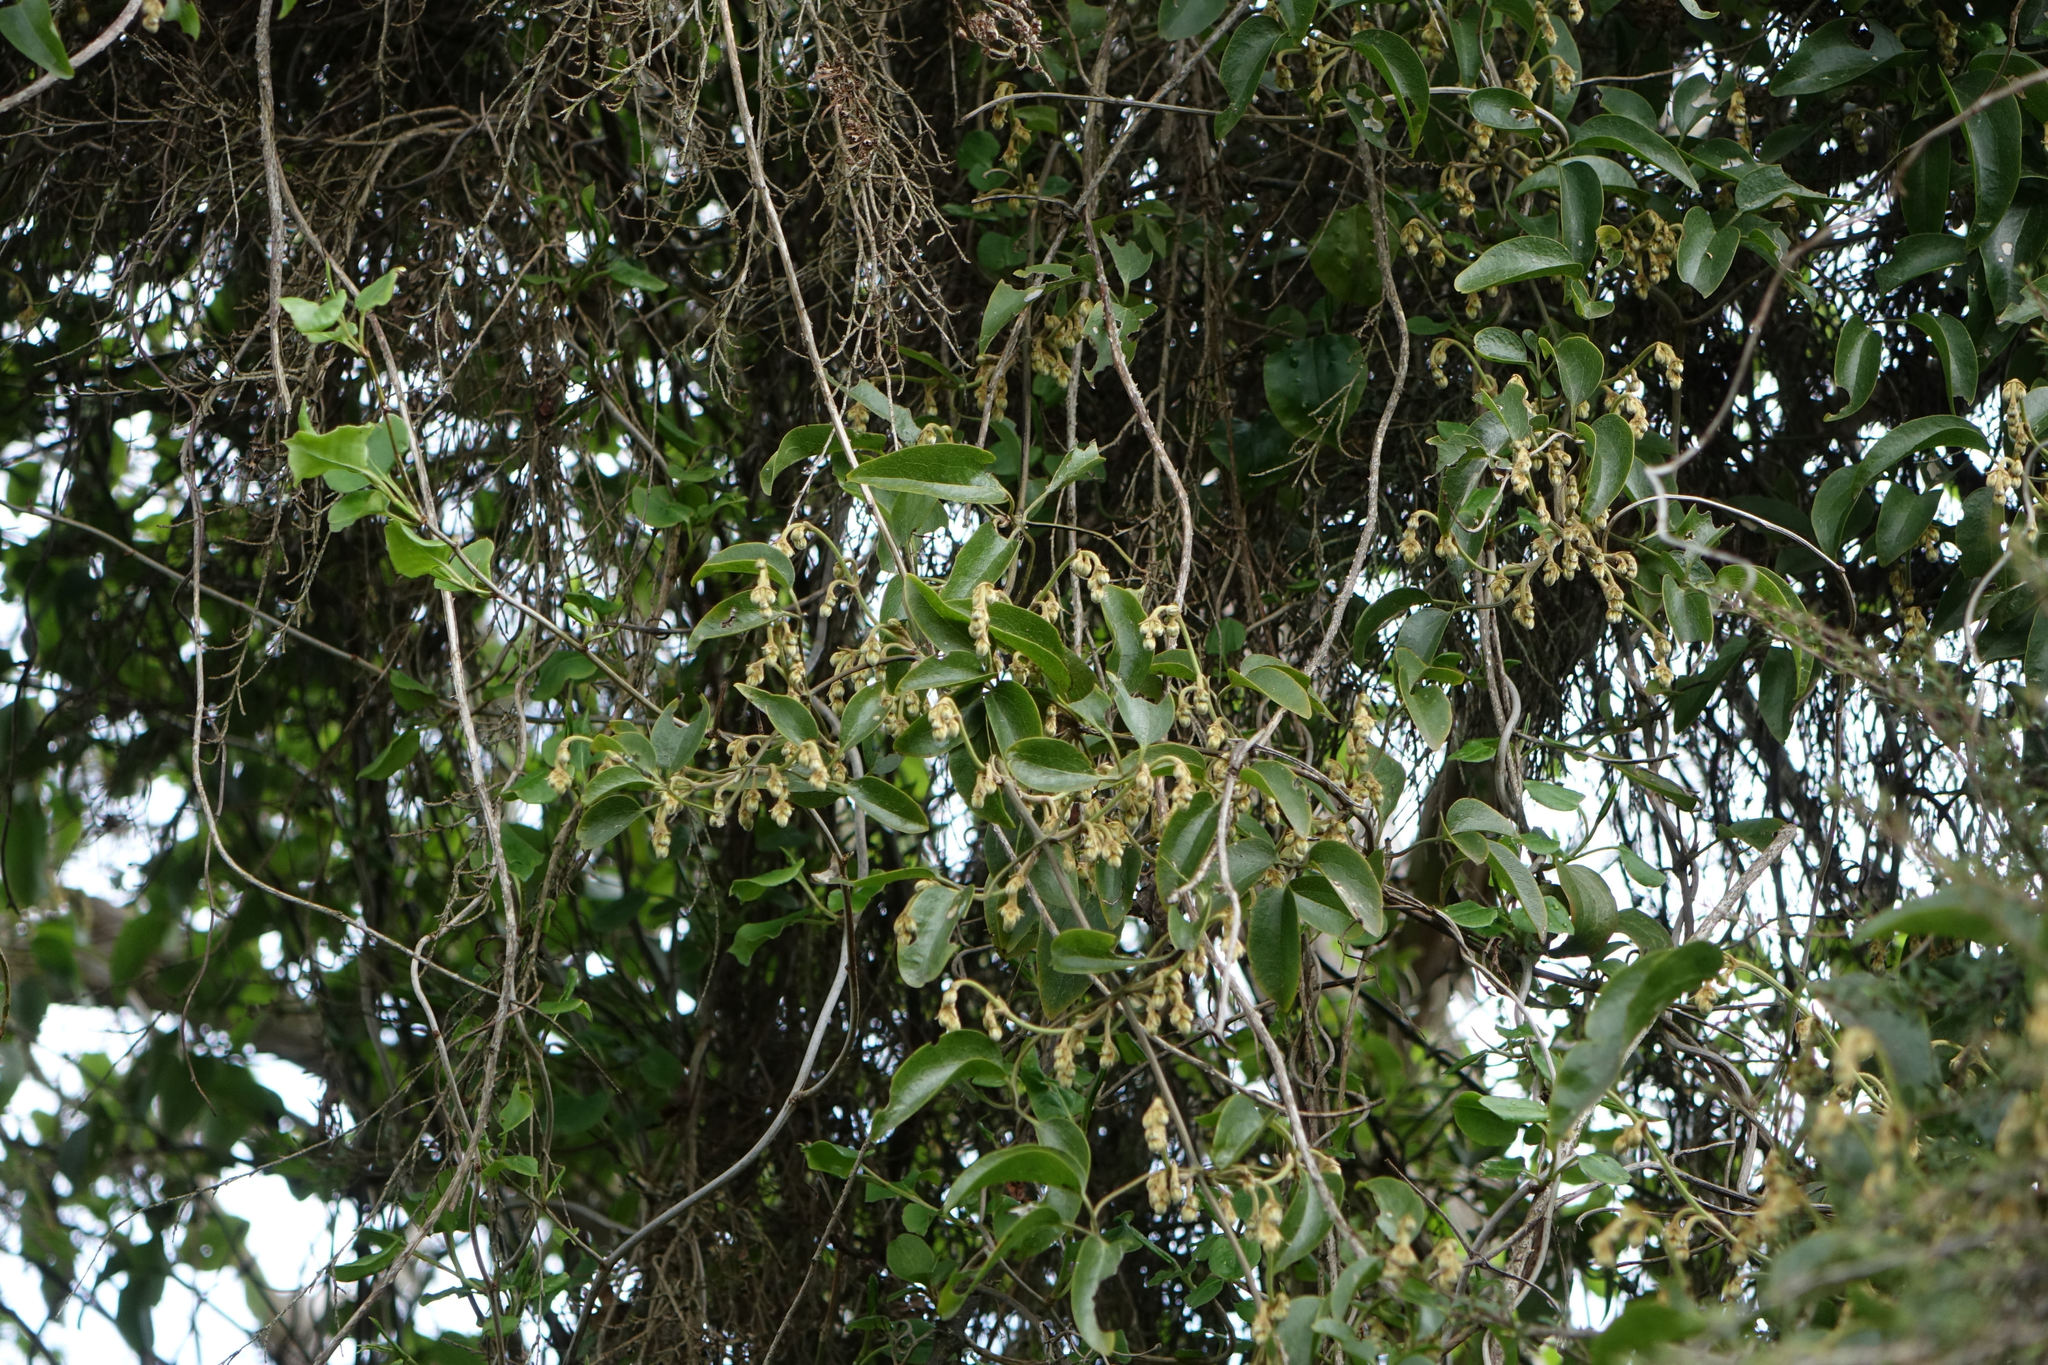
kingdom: Plantae
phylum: Tracheophyta
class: Magnoliopsida
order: Ranunculales
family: Ranunculaceae
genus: Clematis
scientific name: Clematis foetida
